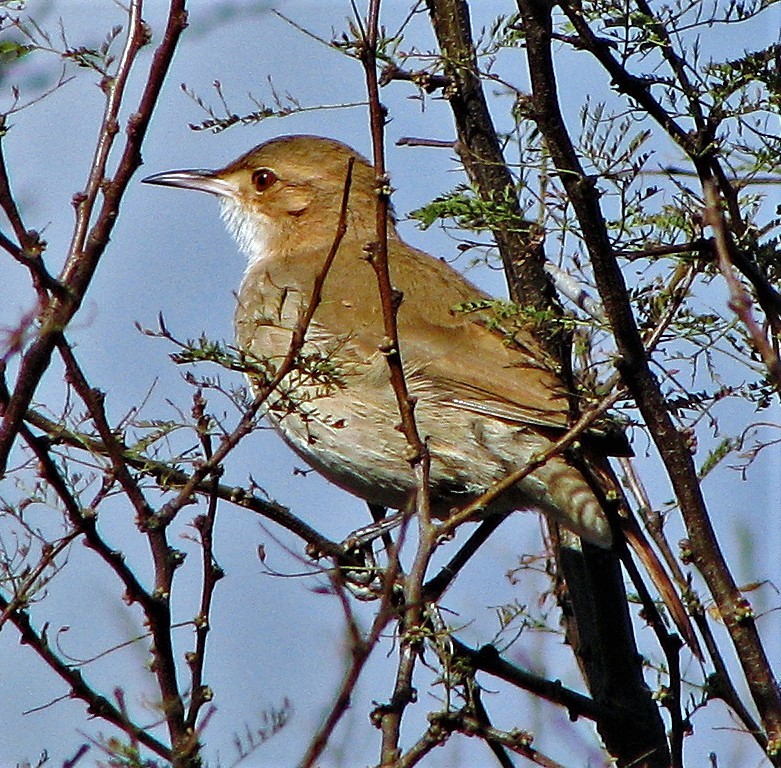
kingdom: Animalia
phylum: Chordata
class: Aves
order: Passeriformes
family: Furnariidae
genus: Furnarius
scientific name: Furnarius rufus
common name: Rufous hornero
